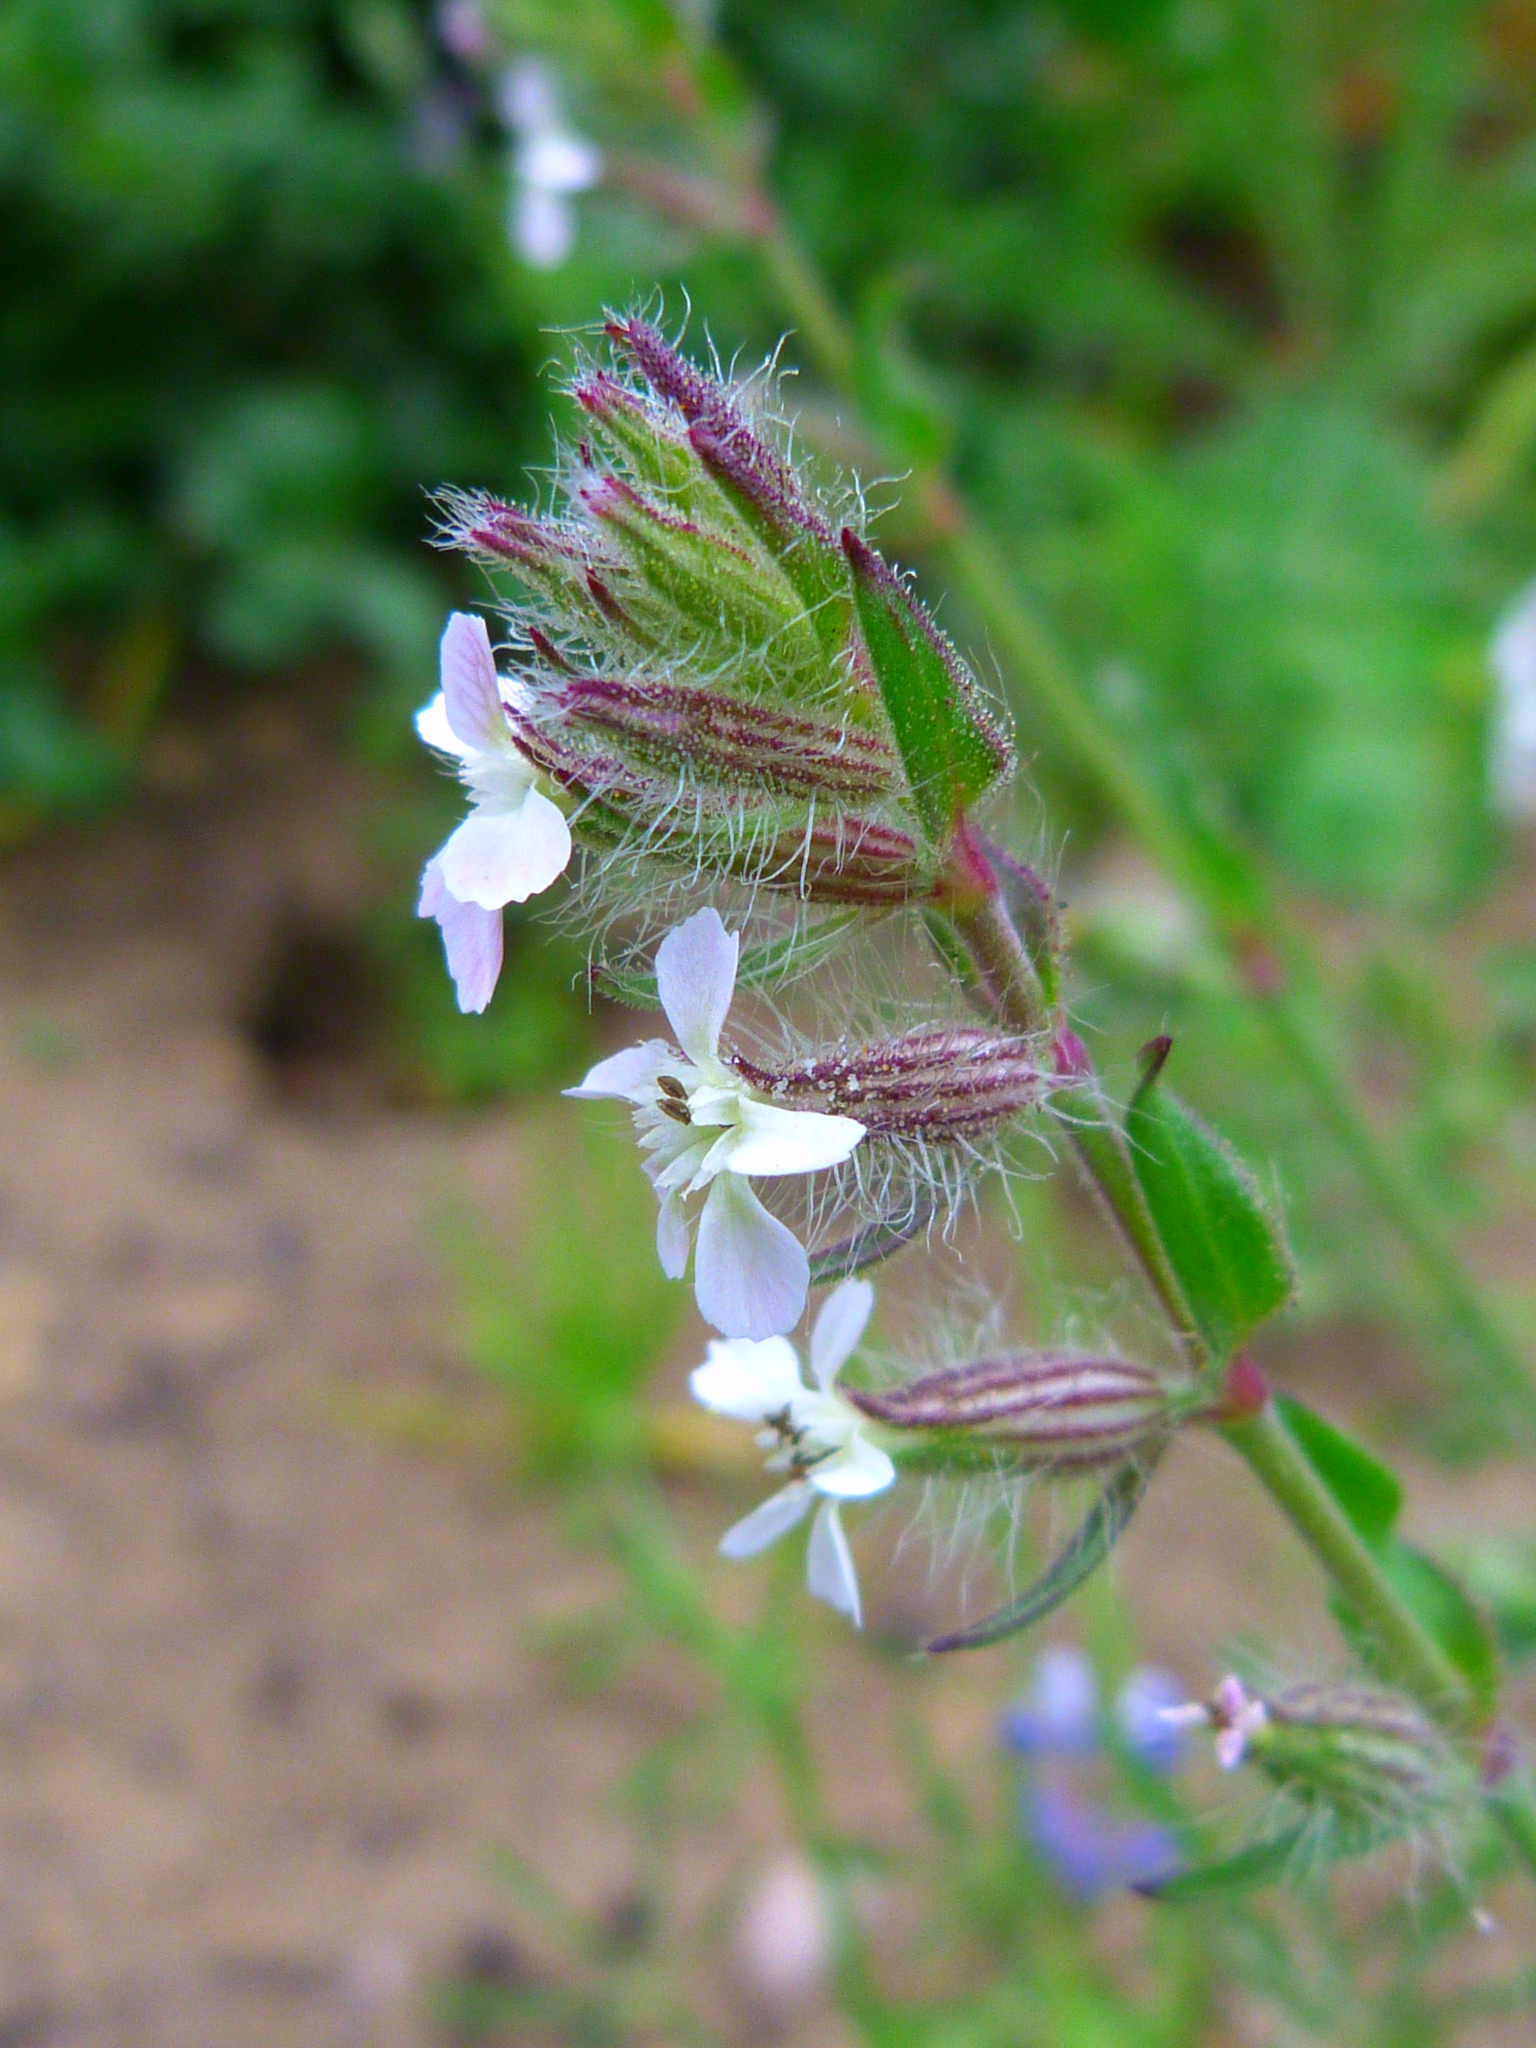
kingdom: Plantae
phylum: Tracheophyta
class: Magnoliopsida
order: Caryophyllales
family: Caryophyllaceae
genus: Silene
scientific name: Silene gallica
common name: Small-flowered catchfly
